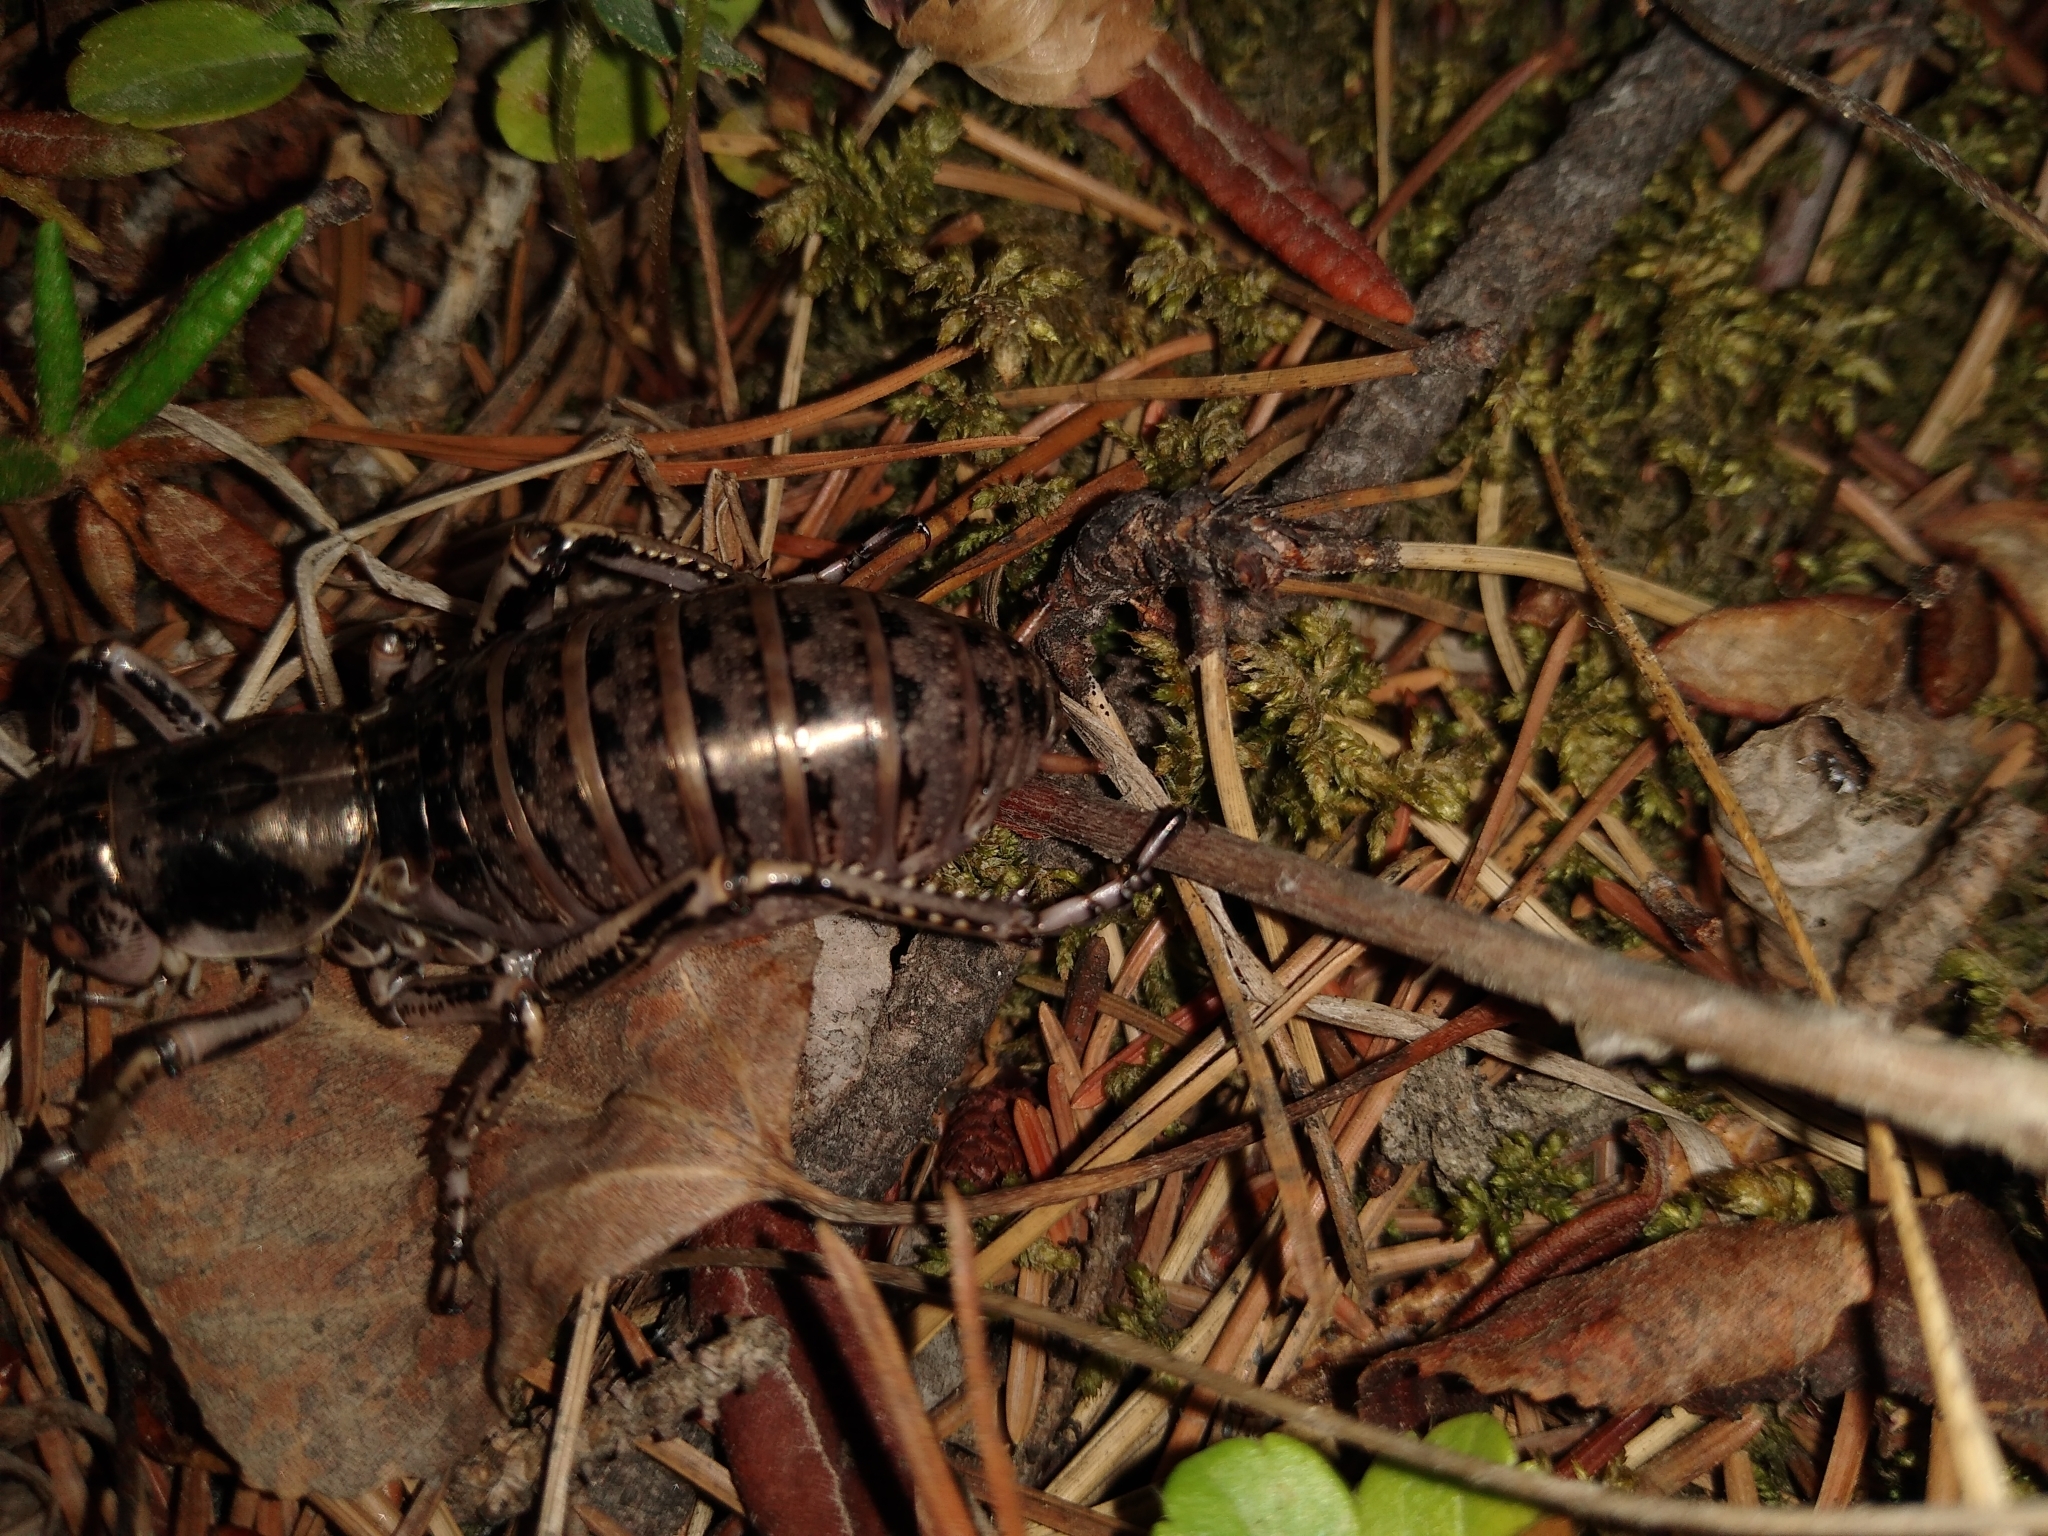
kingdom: Animalia
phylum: Arthropoda
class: Insecta
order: Orthoptera
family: Prophalangopsidae
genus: Cyphoderris
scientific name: Cyphoderris monstrosa
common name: Great grig
